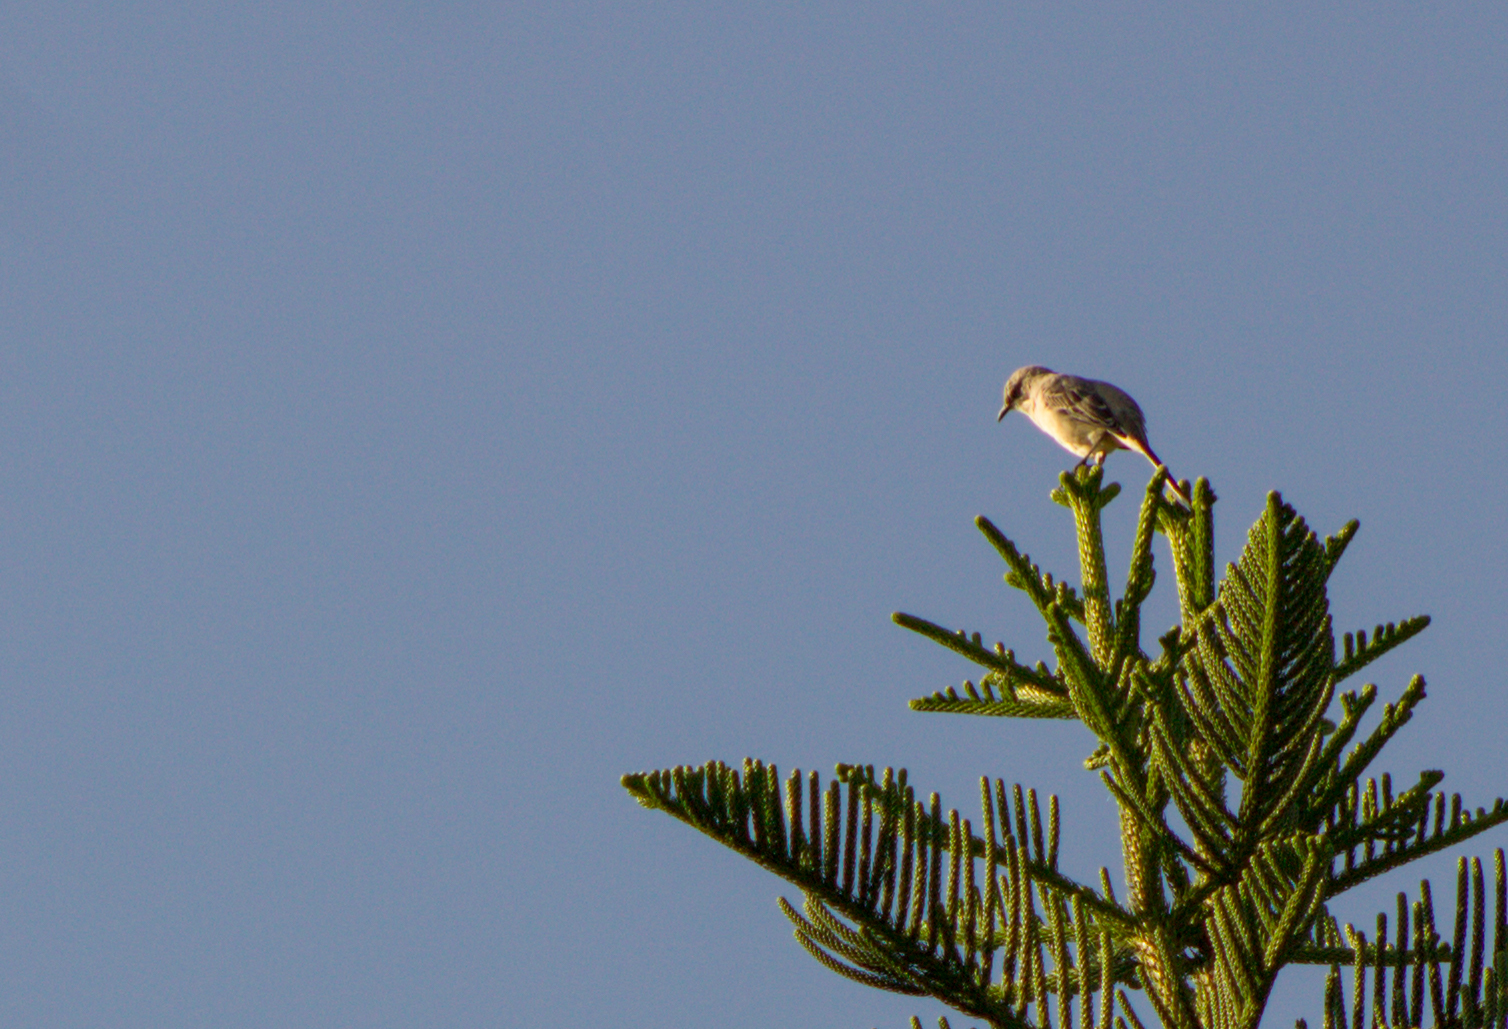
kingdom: Animalia
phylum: Chordata
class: Aves
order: Passeriformes
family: Mimidae
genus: Mimus
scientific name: Mimus gilvus
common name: Tropical mockingbird
